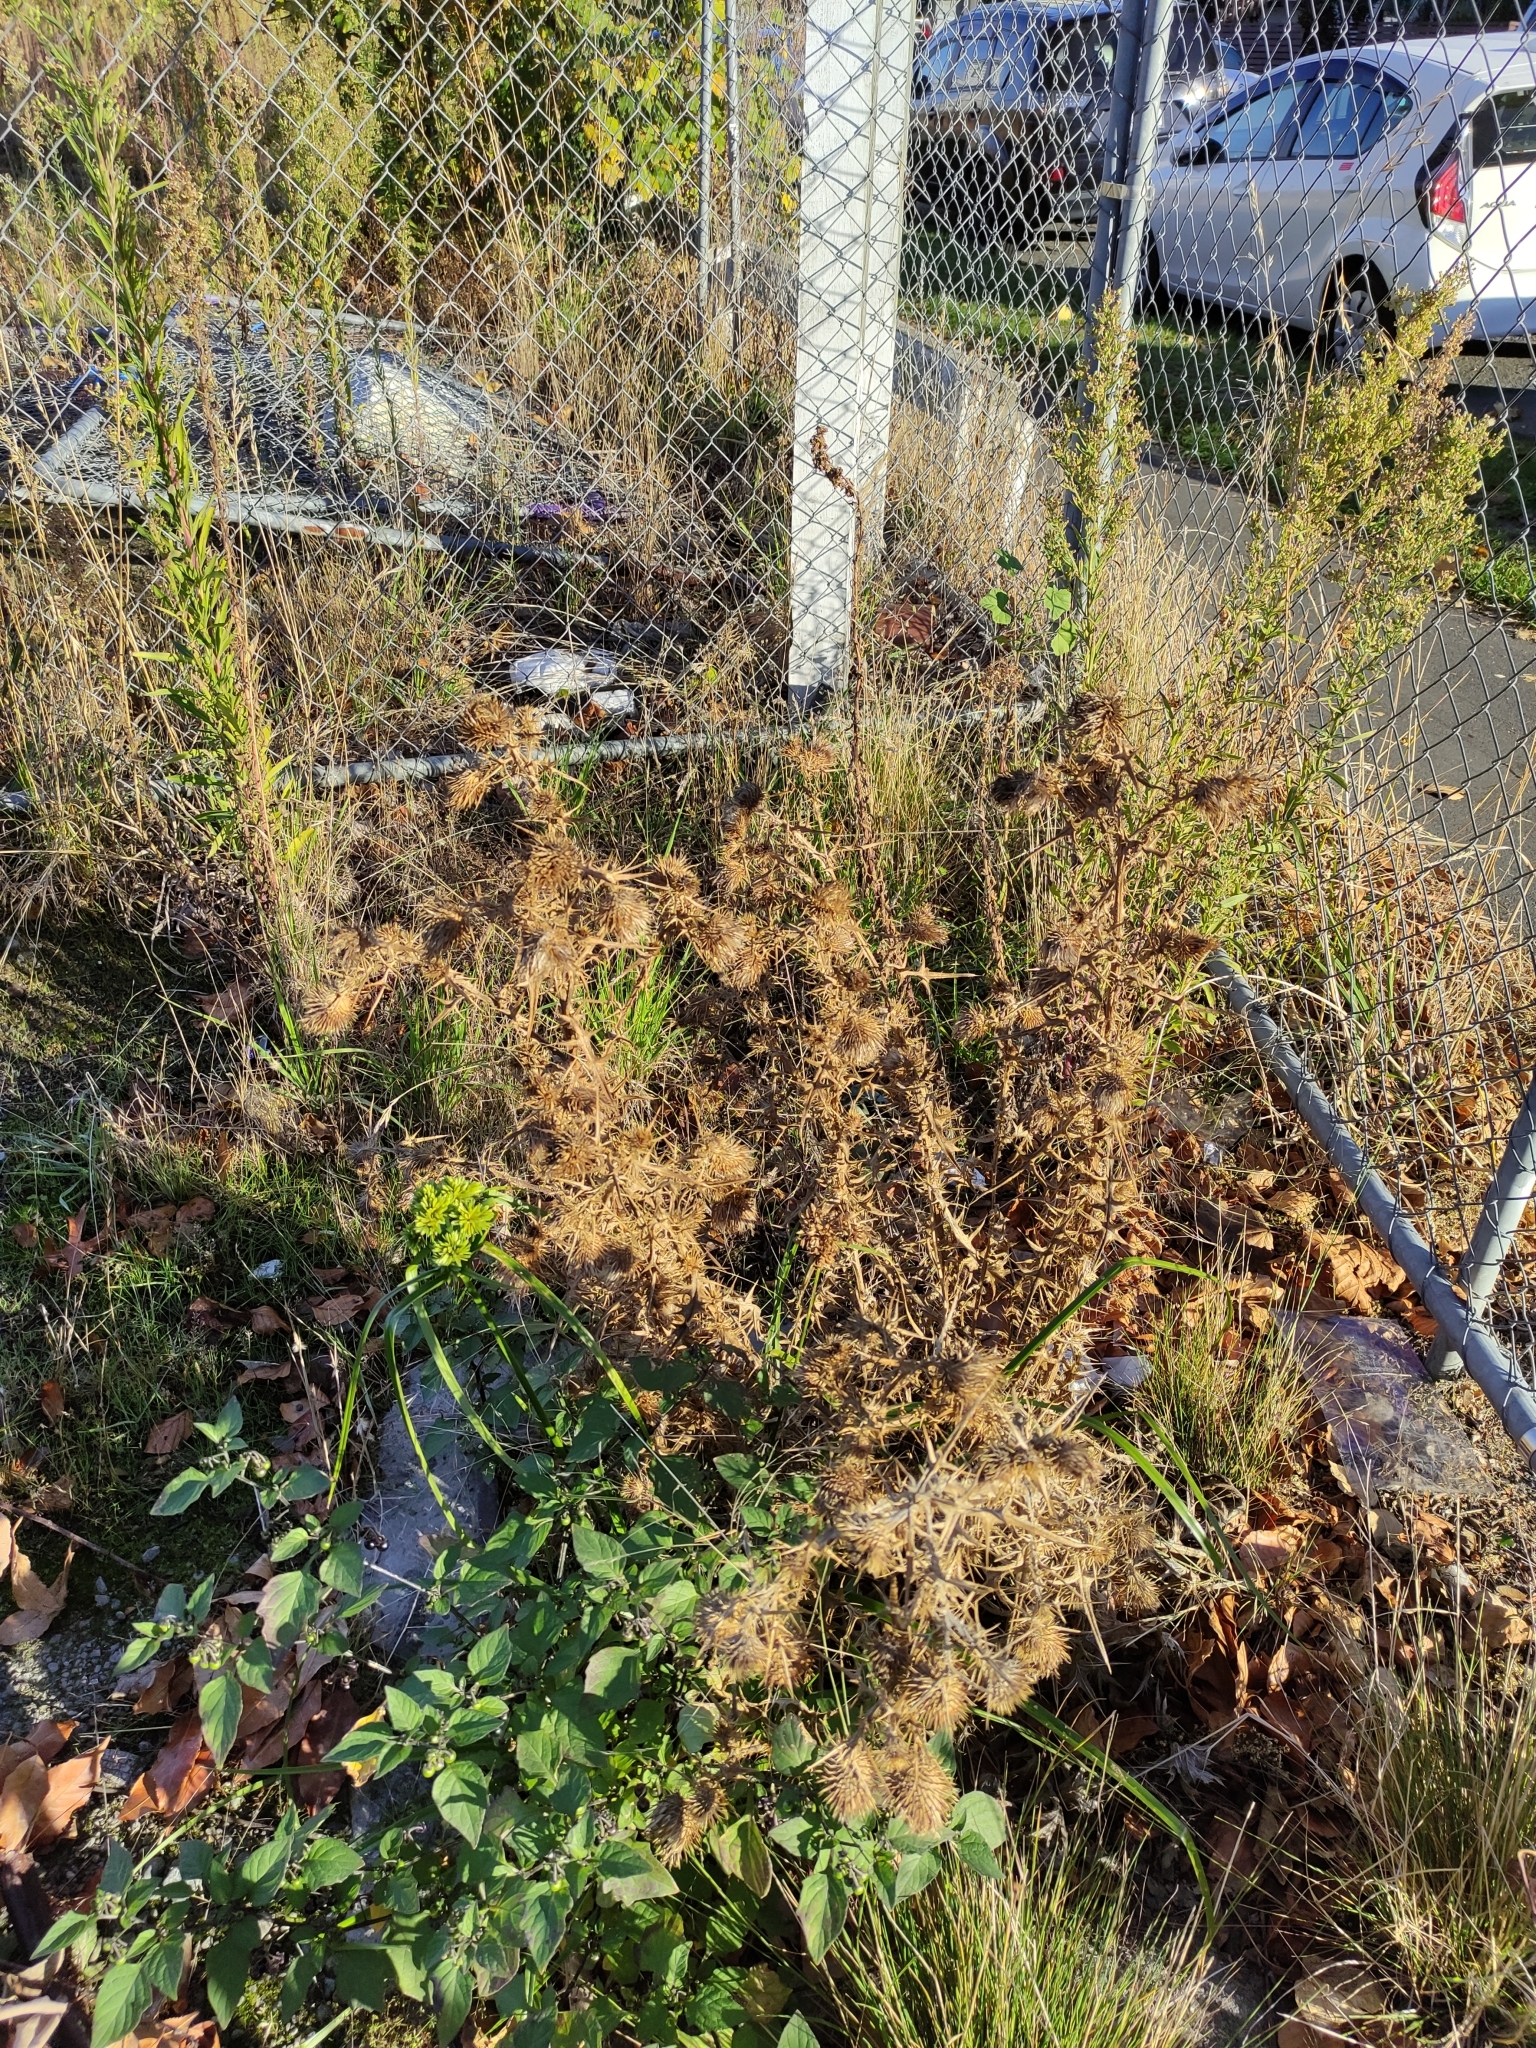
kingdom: Plantae
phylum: Tracheophyta
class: Magnoliopsida
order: Asterales
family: Asteraceae
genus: Cirsium
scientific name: Cirsium vulgare
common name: Bull thistle
